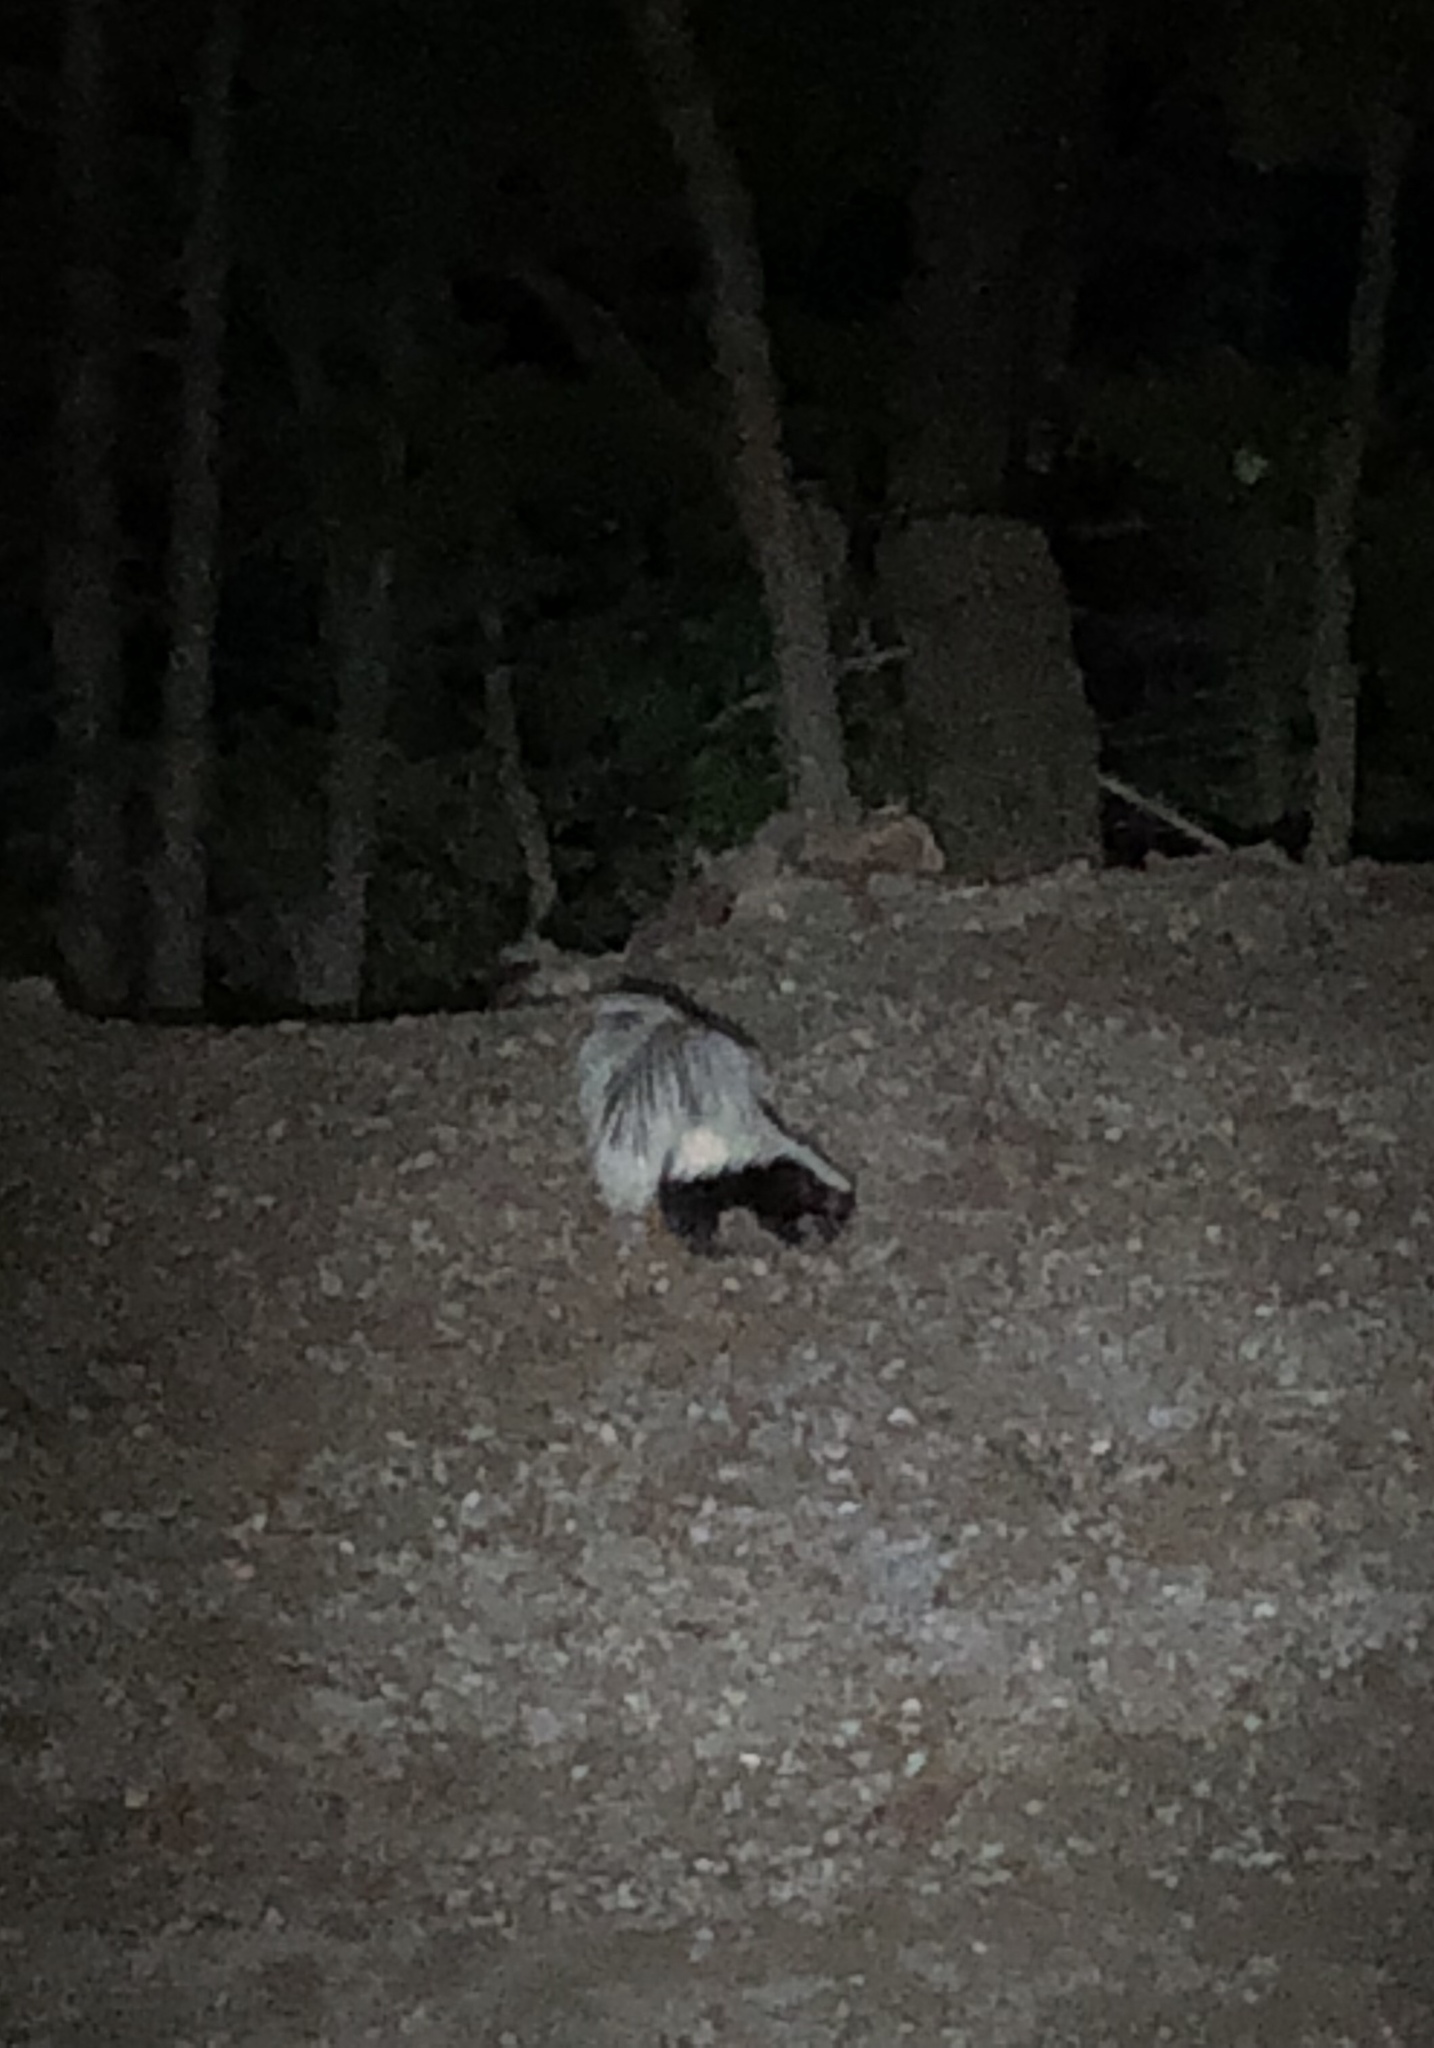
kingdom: Animalia
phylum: Chordata
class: Mammalia
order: Carnivora
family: Mephitidae
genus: Mephitis
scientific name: Mephitis mephitis
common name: Striped skunk
